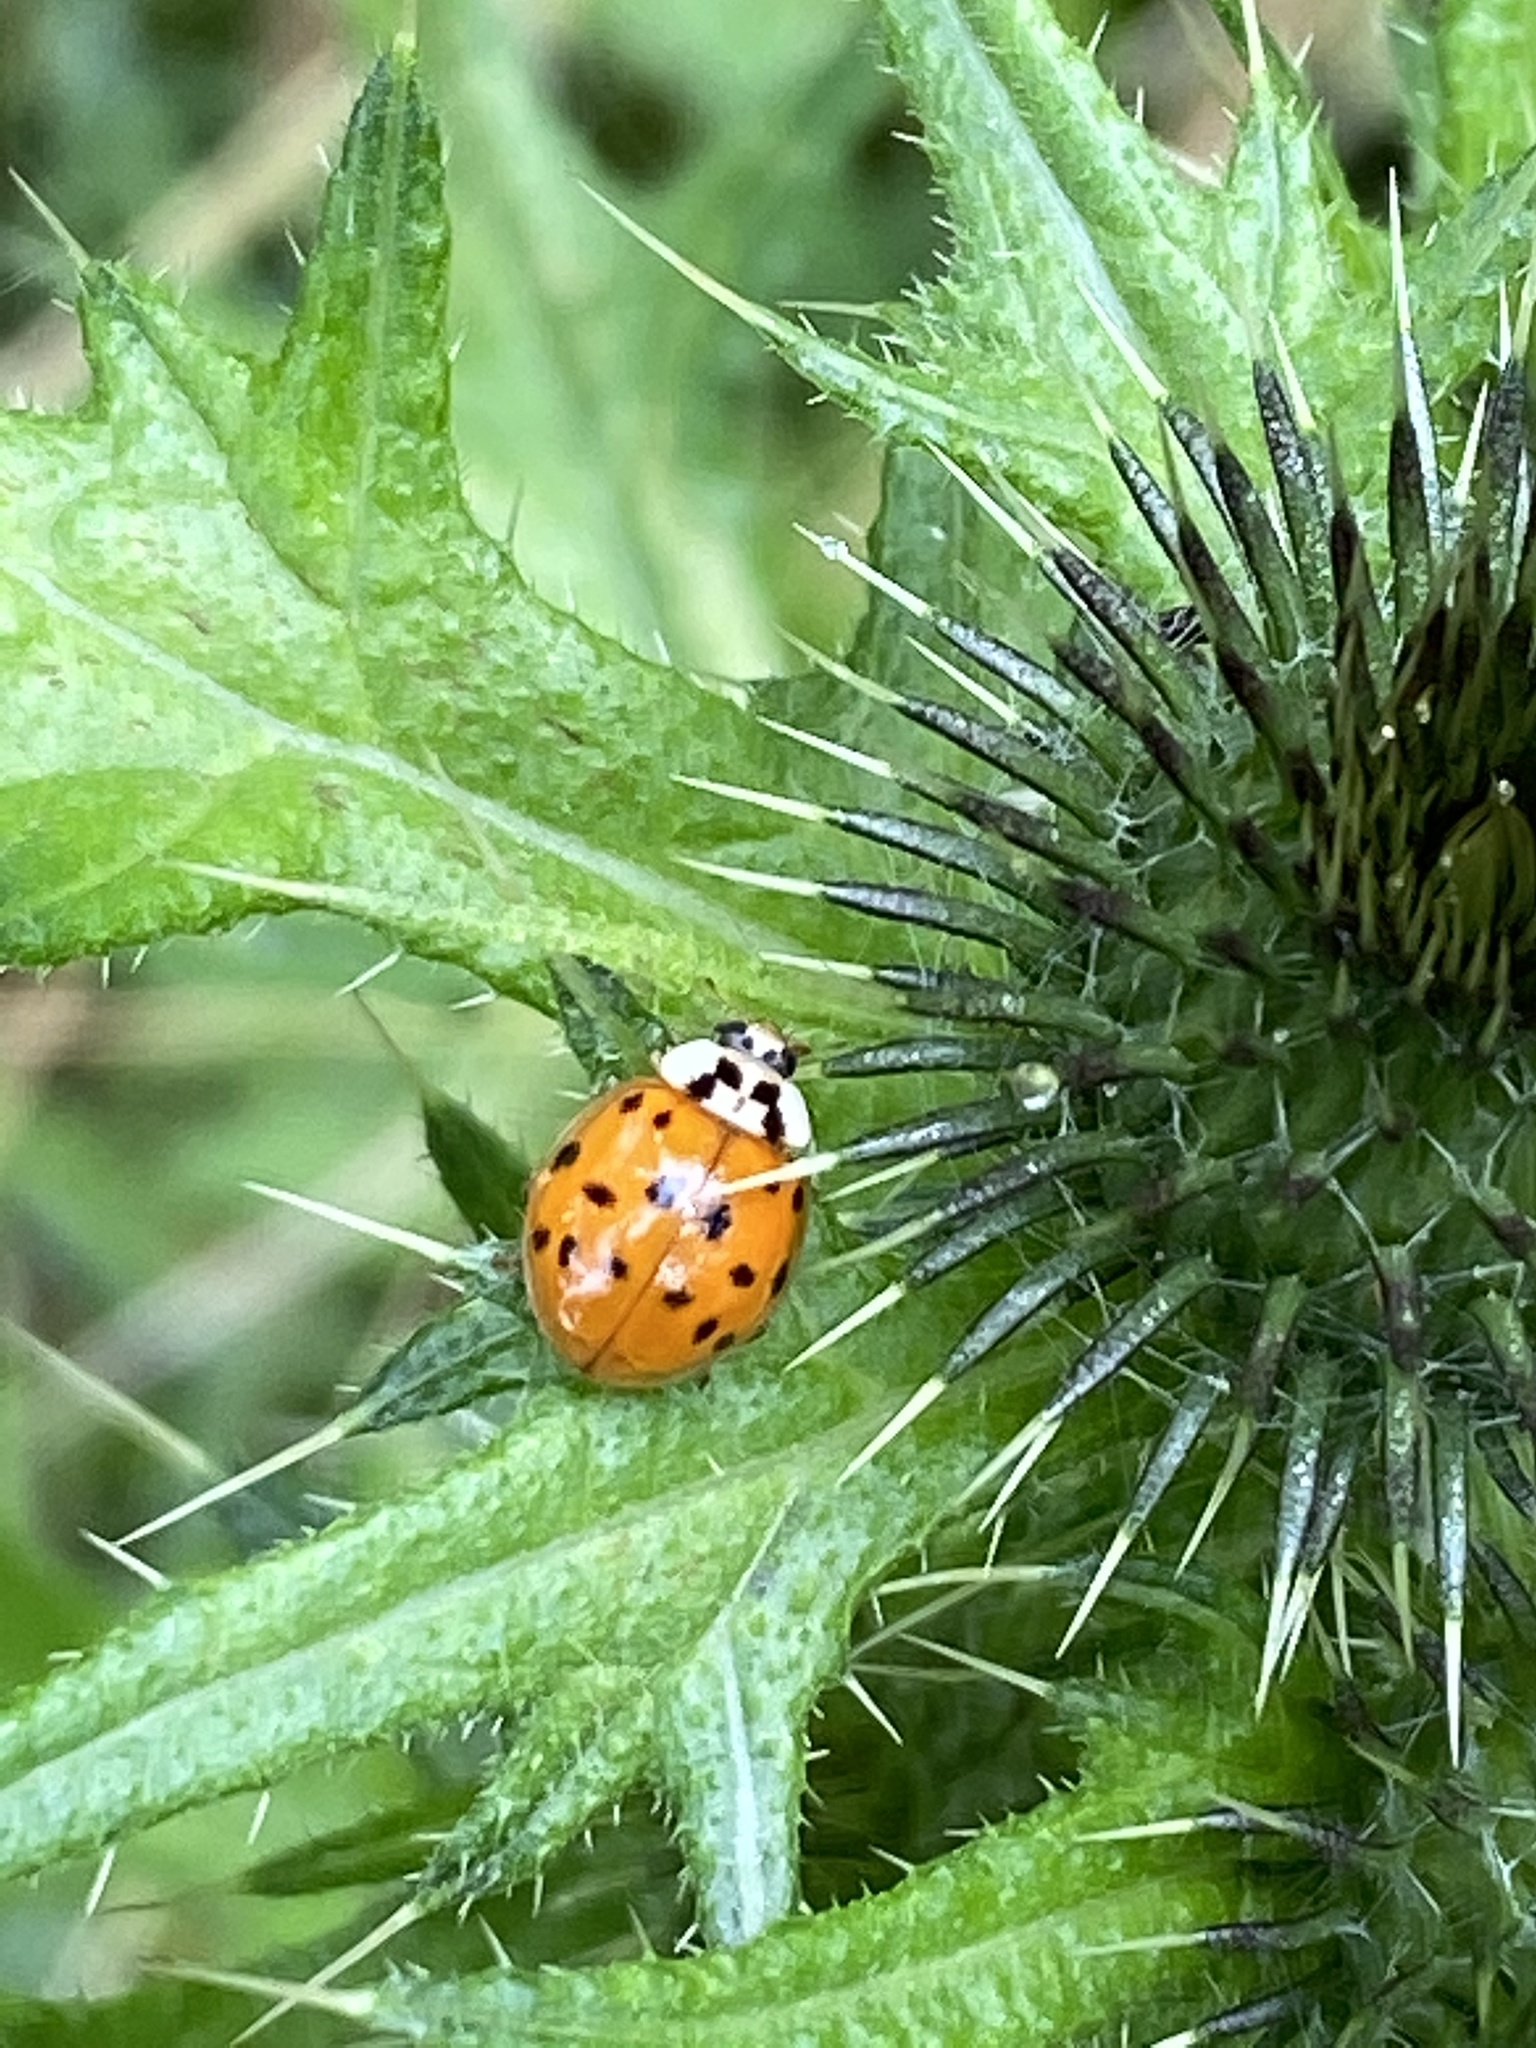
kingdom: Animalia
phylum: Arthropoda
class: Insecta
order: Coleoptera
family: Coccinellidae
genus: Harmonia
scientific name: Harmonia axyridis
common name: Harlequin ladybird
